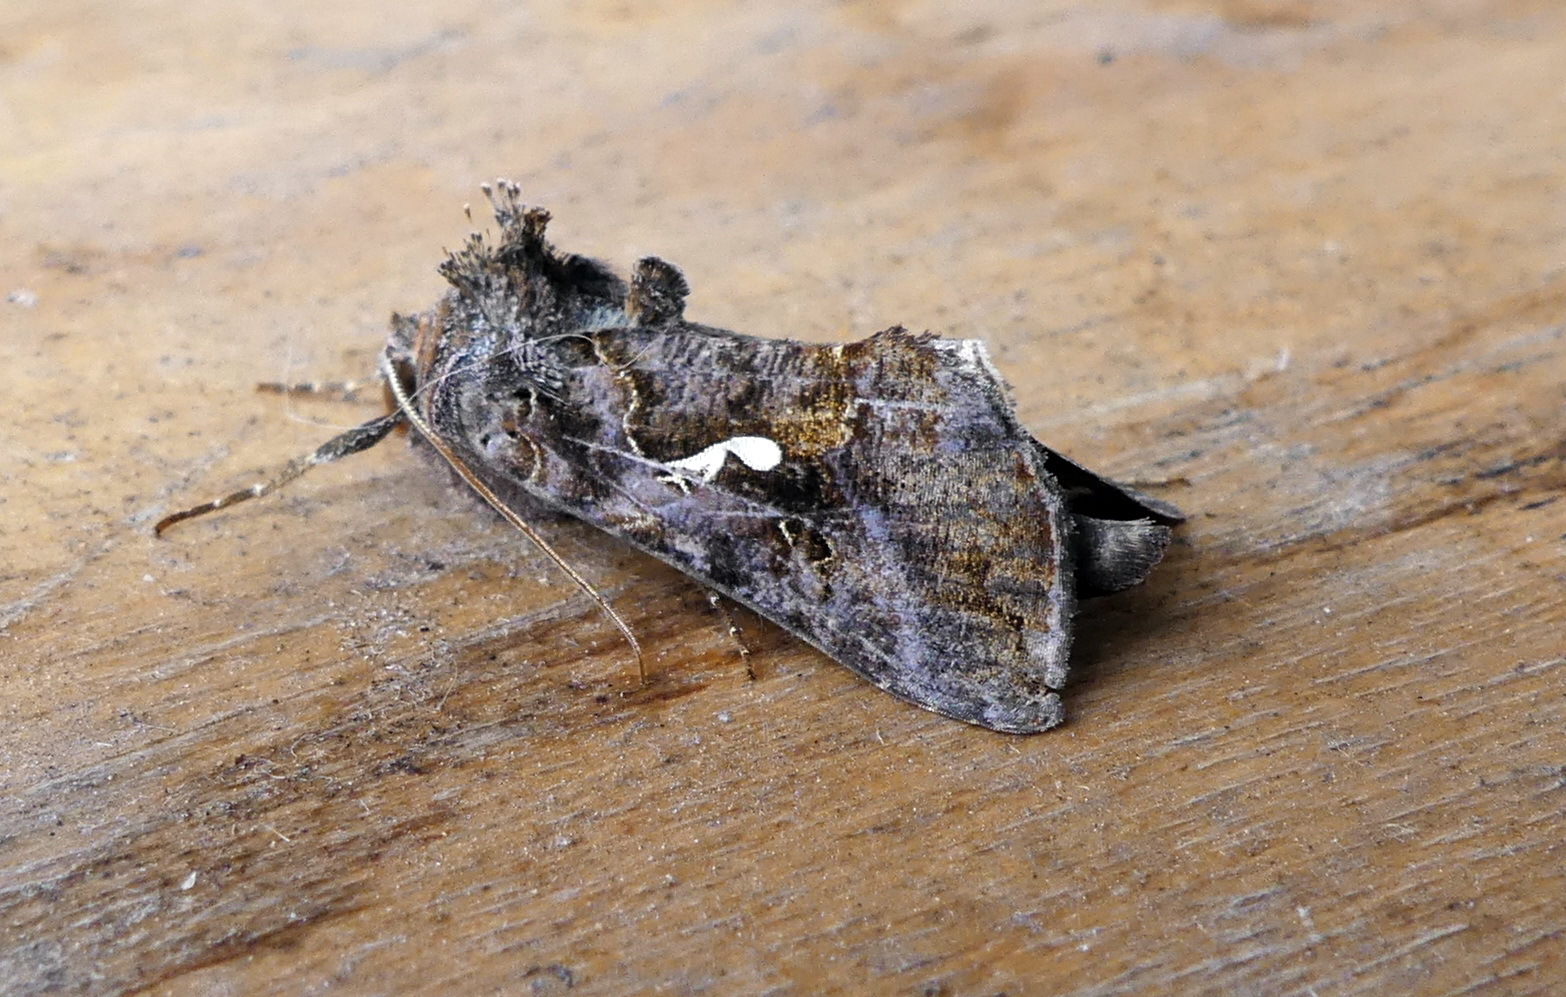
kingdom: Animalia
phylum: Arthropoda
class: Insecta
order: Lepidoptera
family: Noctuidae
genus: Autographa
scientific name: Autographa precationis
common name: Common looper moth
